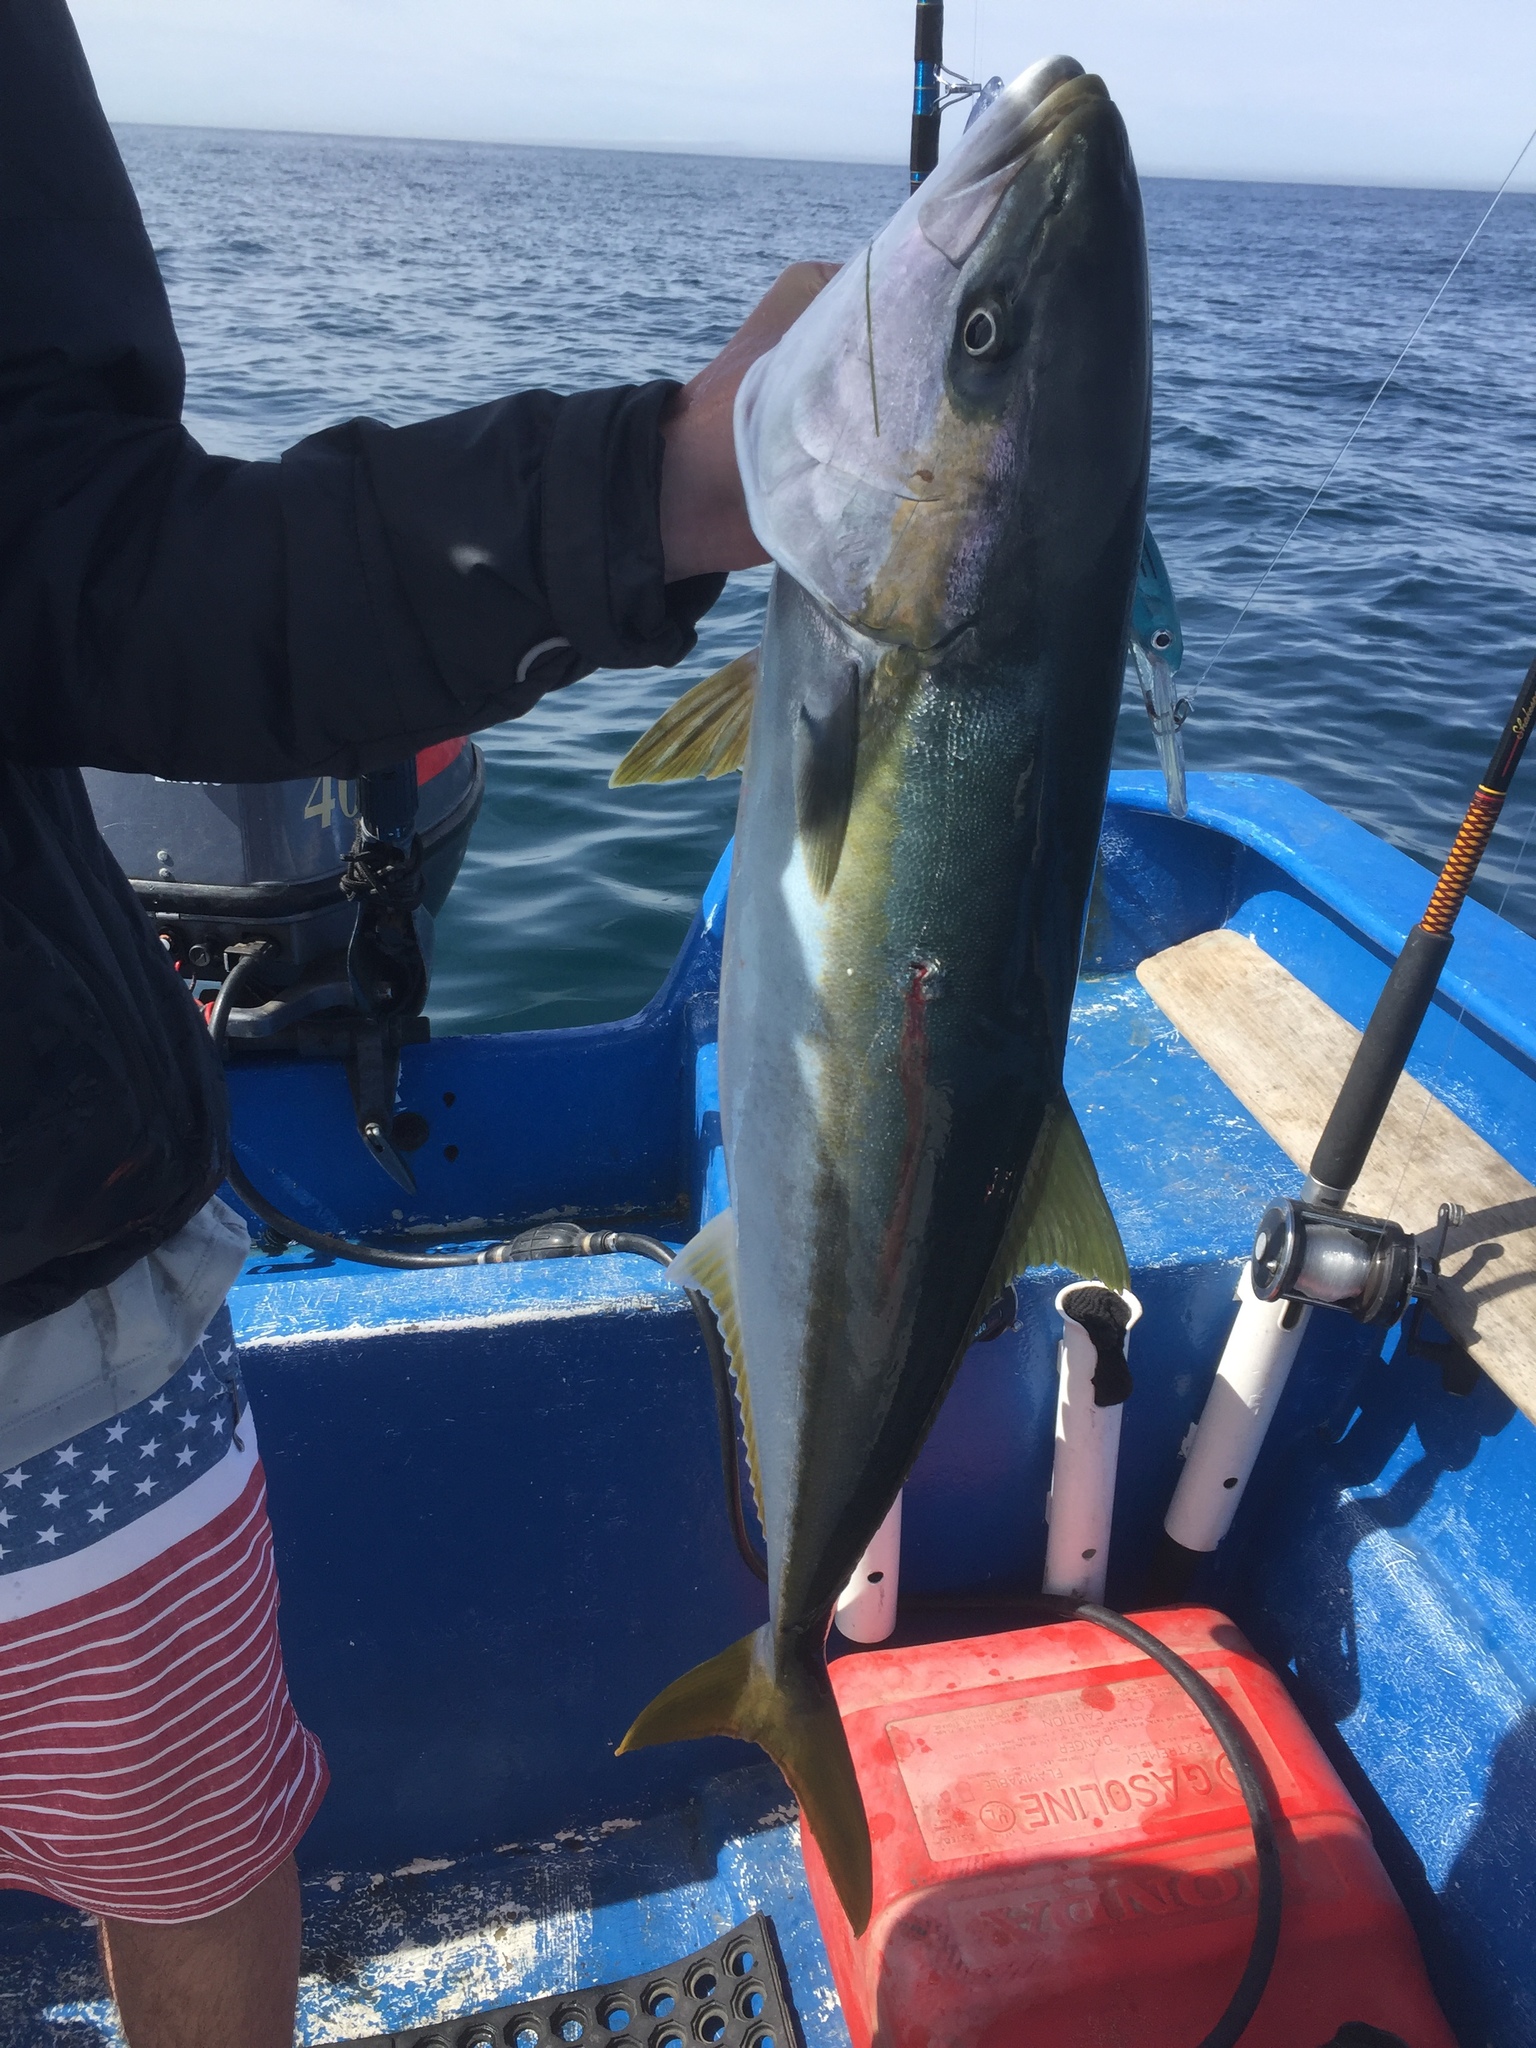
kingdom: Animalia
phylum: Chordata
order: Perciformes
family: Carangidae
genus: Seriola
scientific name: Seriola lalandi
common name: Yellowtail kingfish
